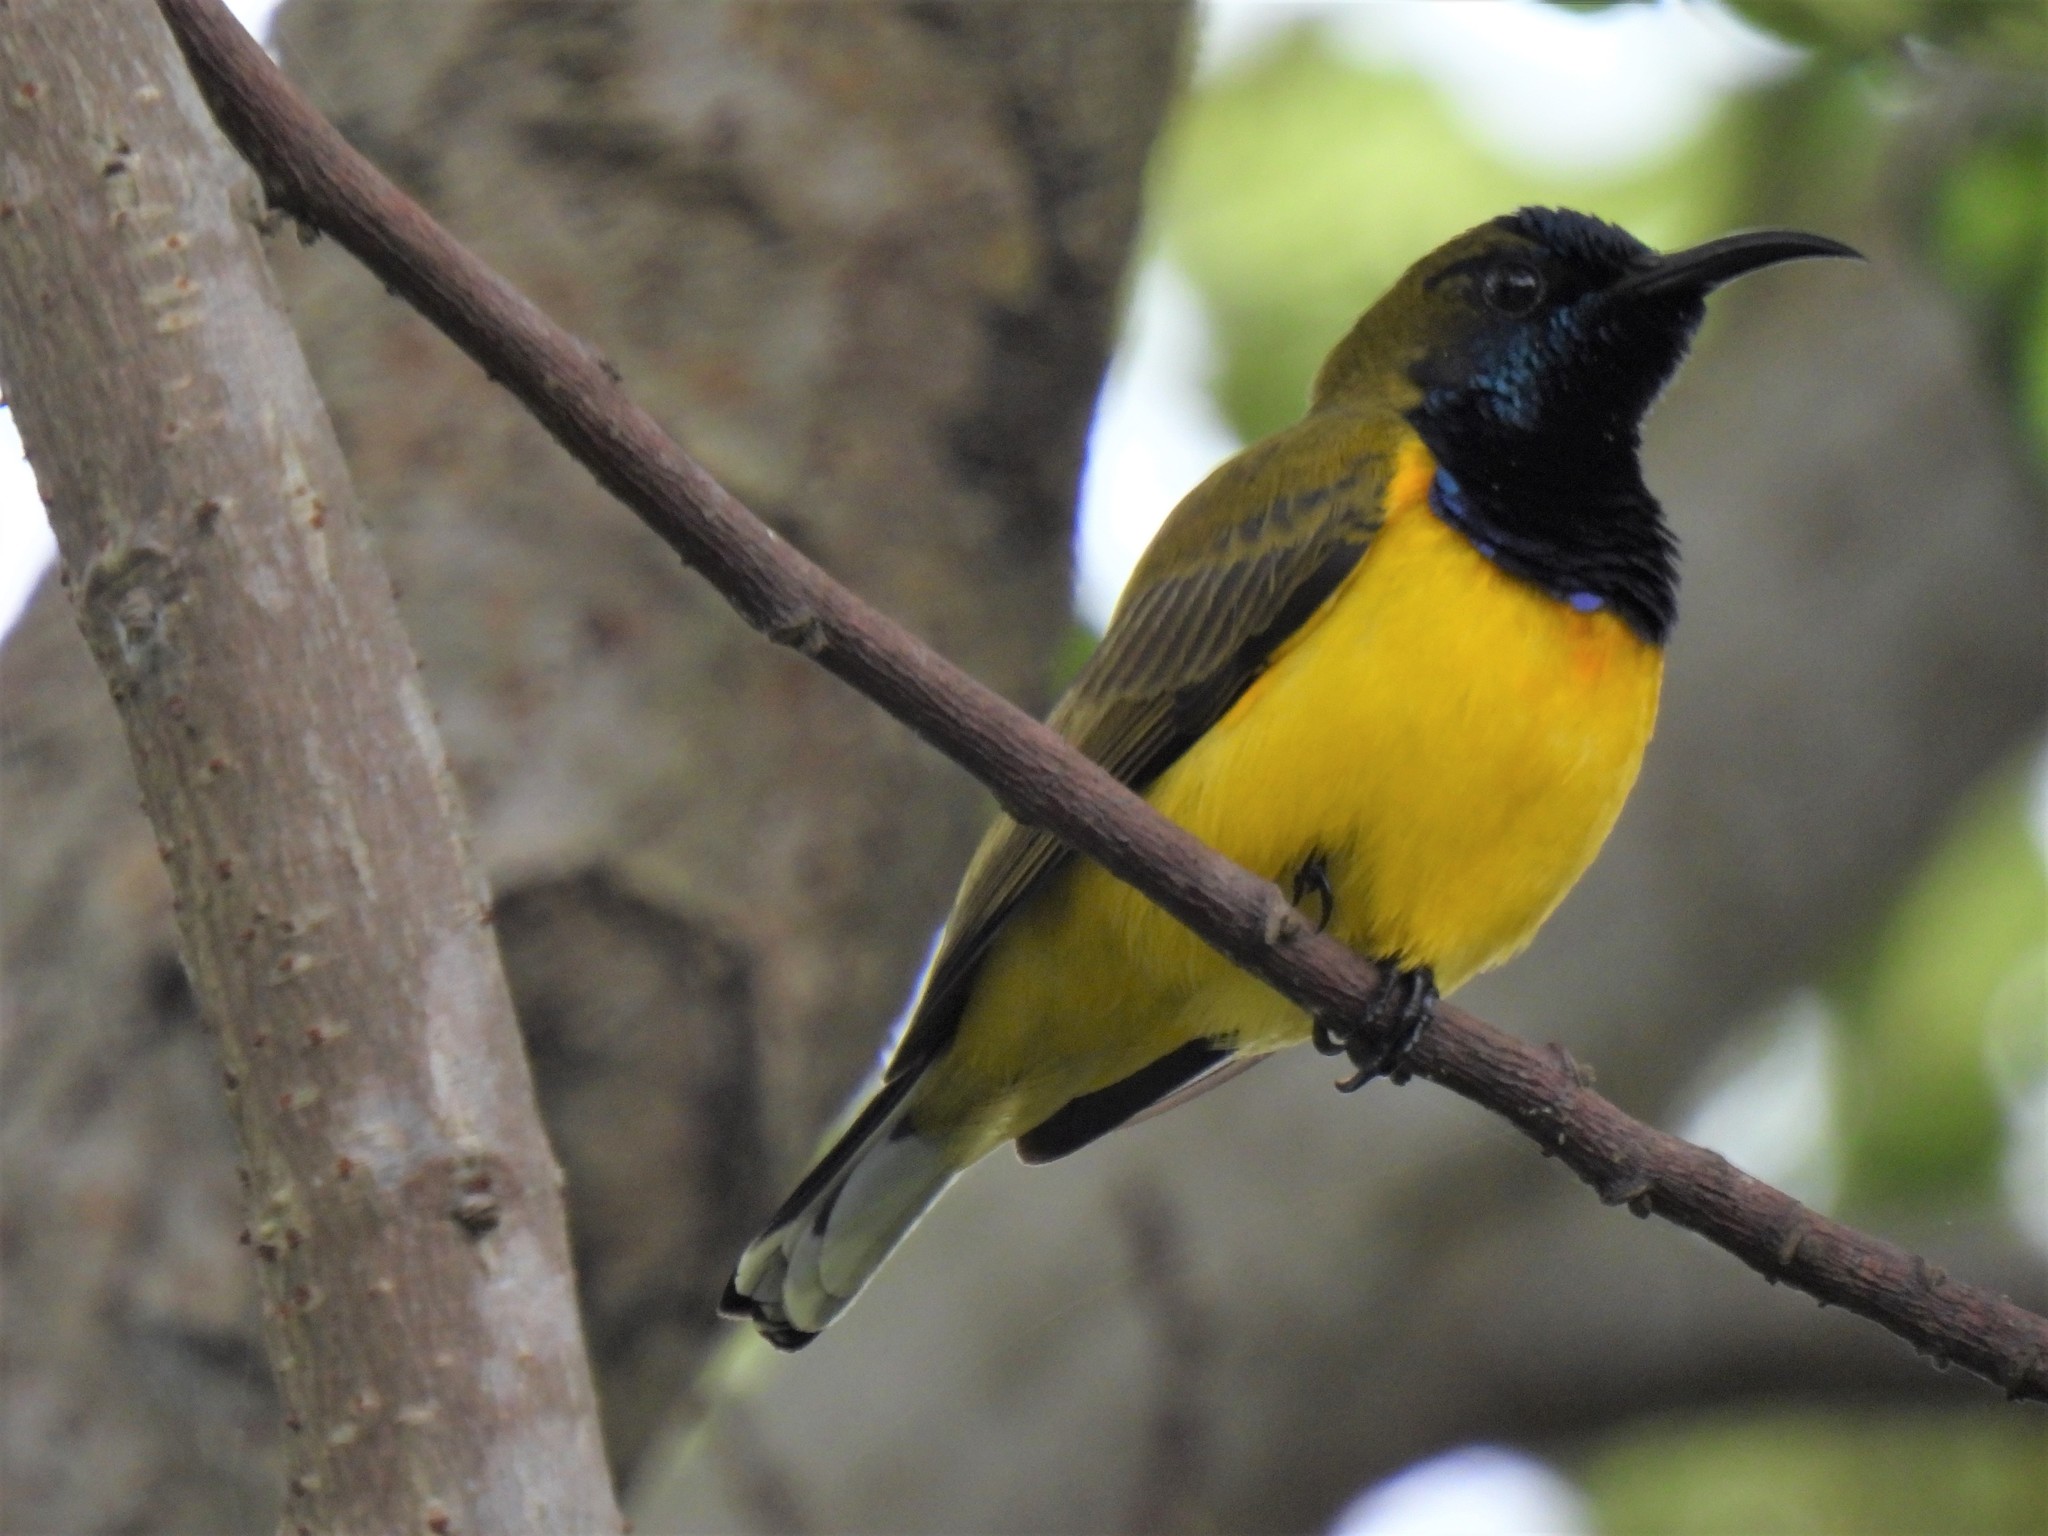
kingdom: Animalia
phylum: Chordata
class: Aves
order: Passeriformes
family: Nectariniidae
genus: Cinnyris
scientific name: Cinnyris
